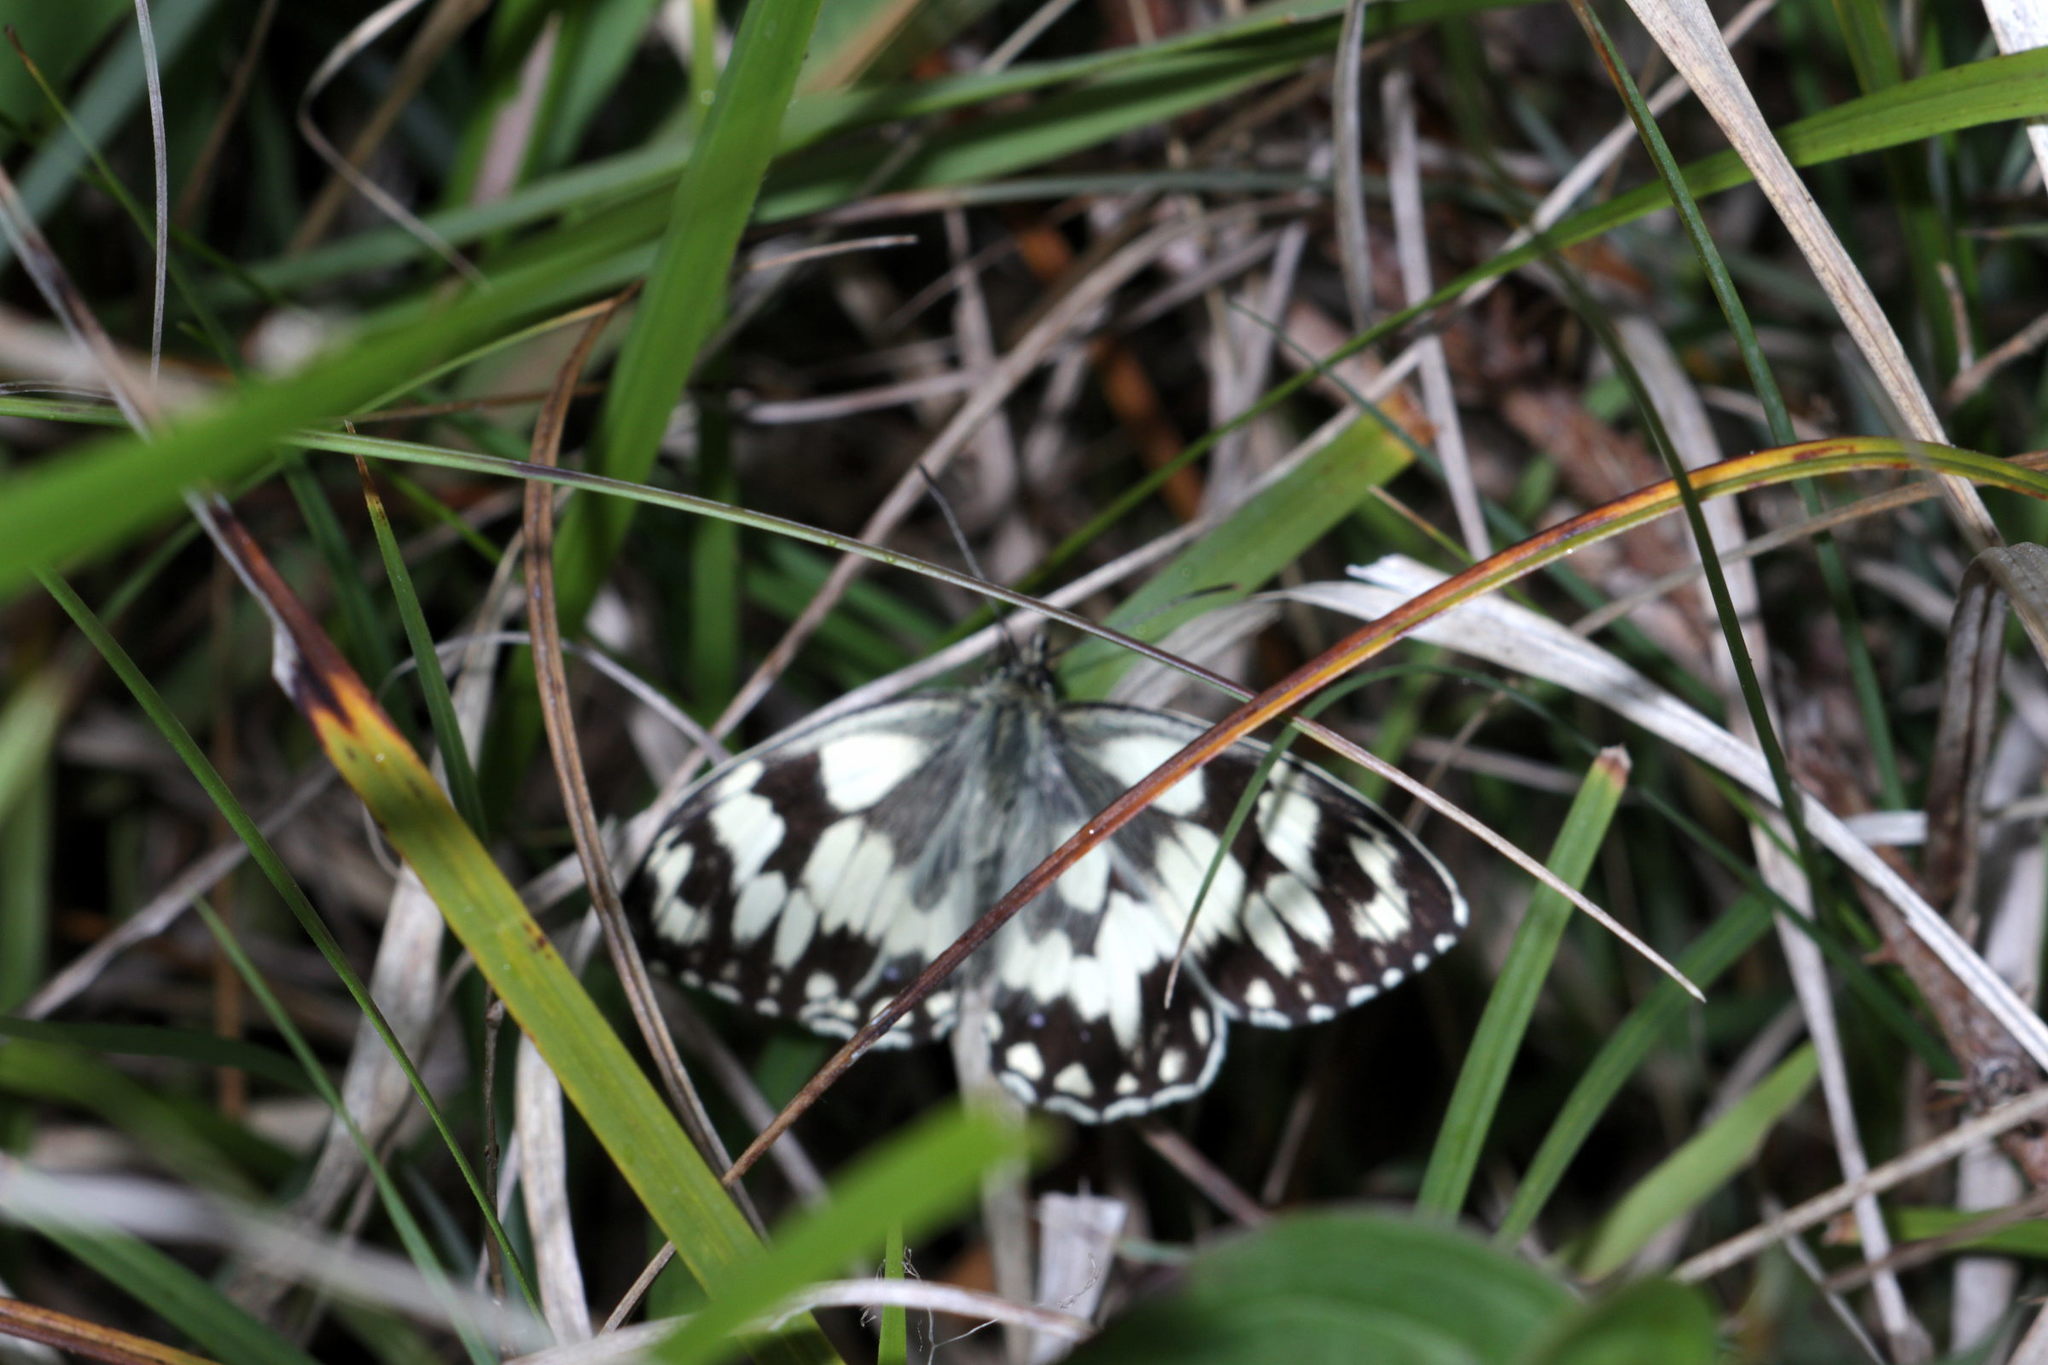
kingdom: Animalia
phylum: Arthropoda
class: Insecta
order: Lepidoptera
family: Nymphalidae
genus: Melanargia
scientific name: Melanargia galathea
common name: Marbled white
